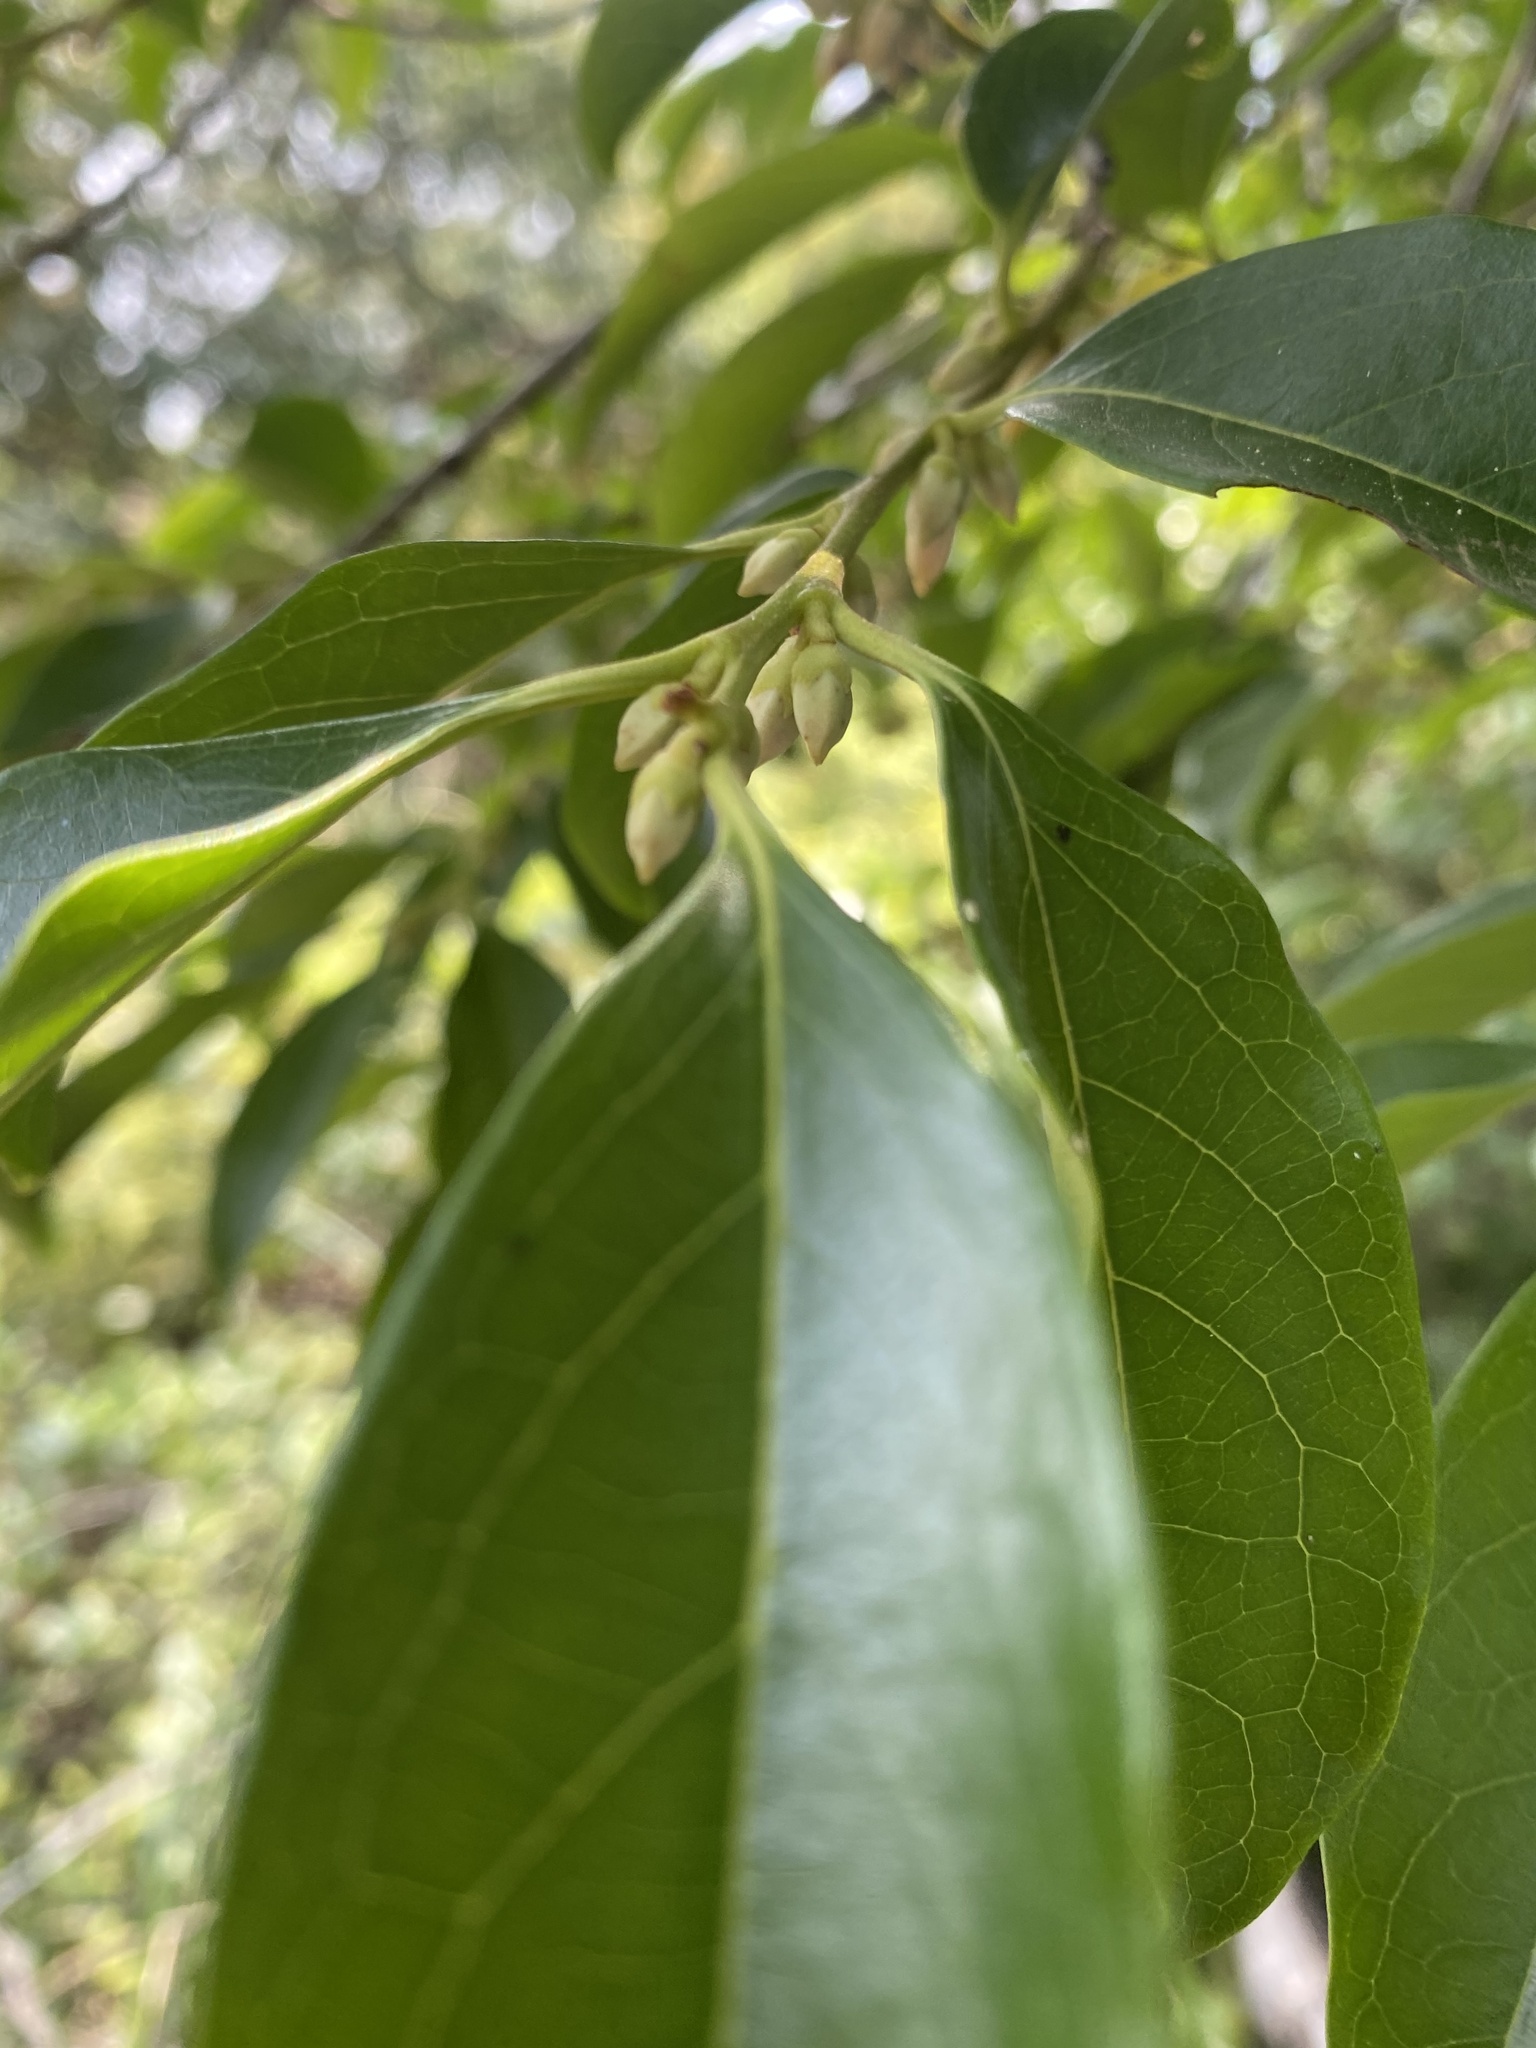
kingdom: Plantae
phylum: Tracheophyta
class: Magnoliopsida
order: Ericales
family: Ebenaceae
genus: Diospyros
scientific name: Diospyros morrisiana
